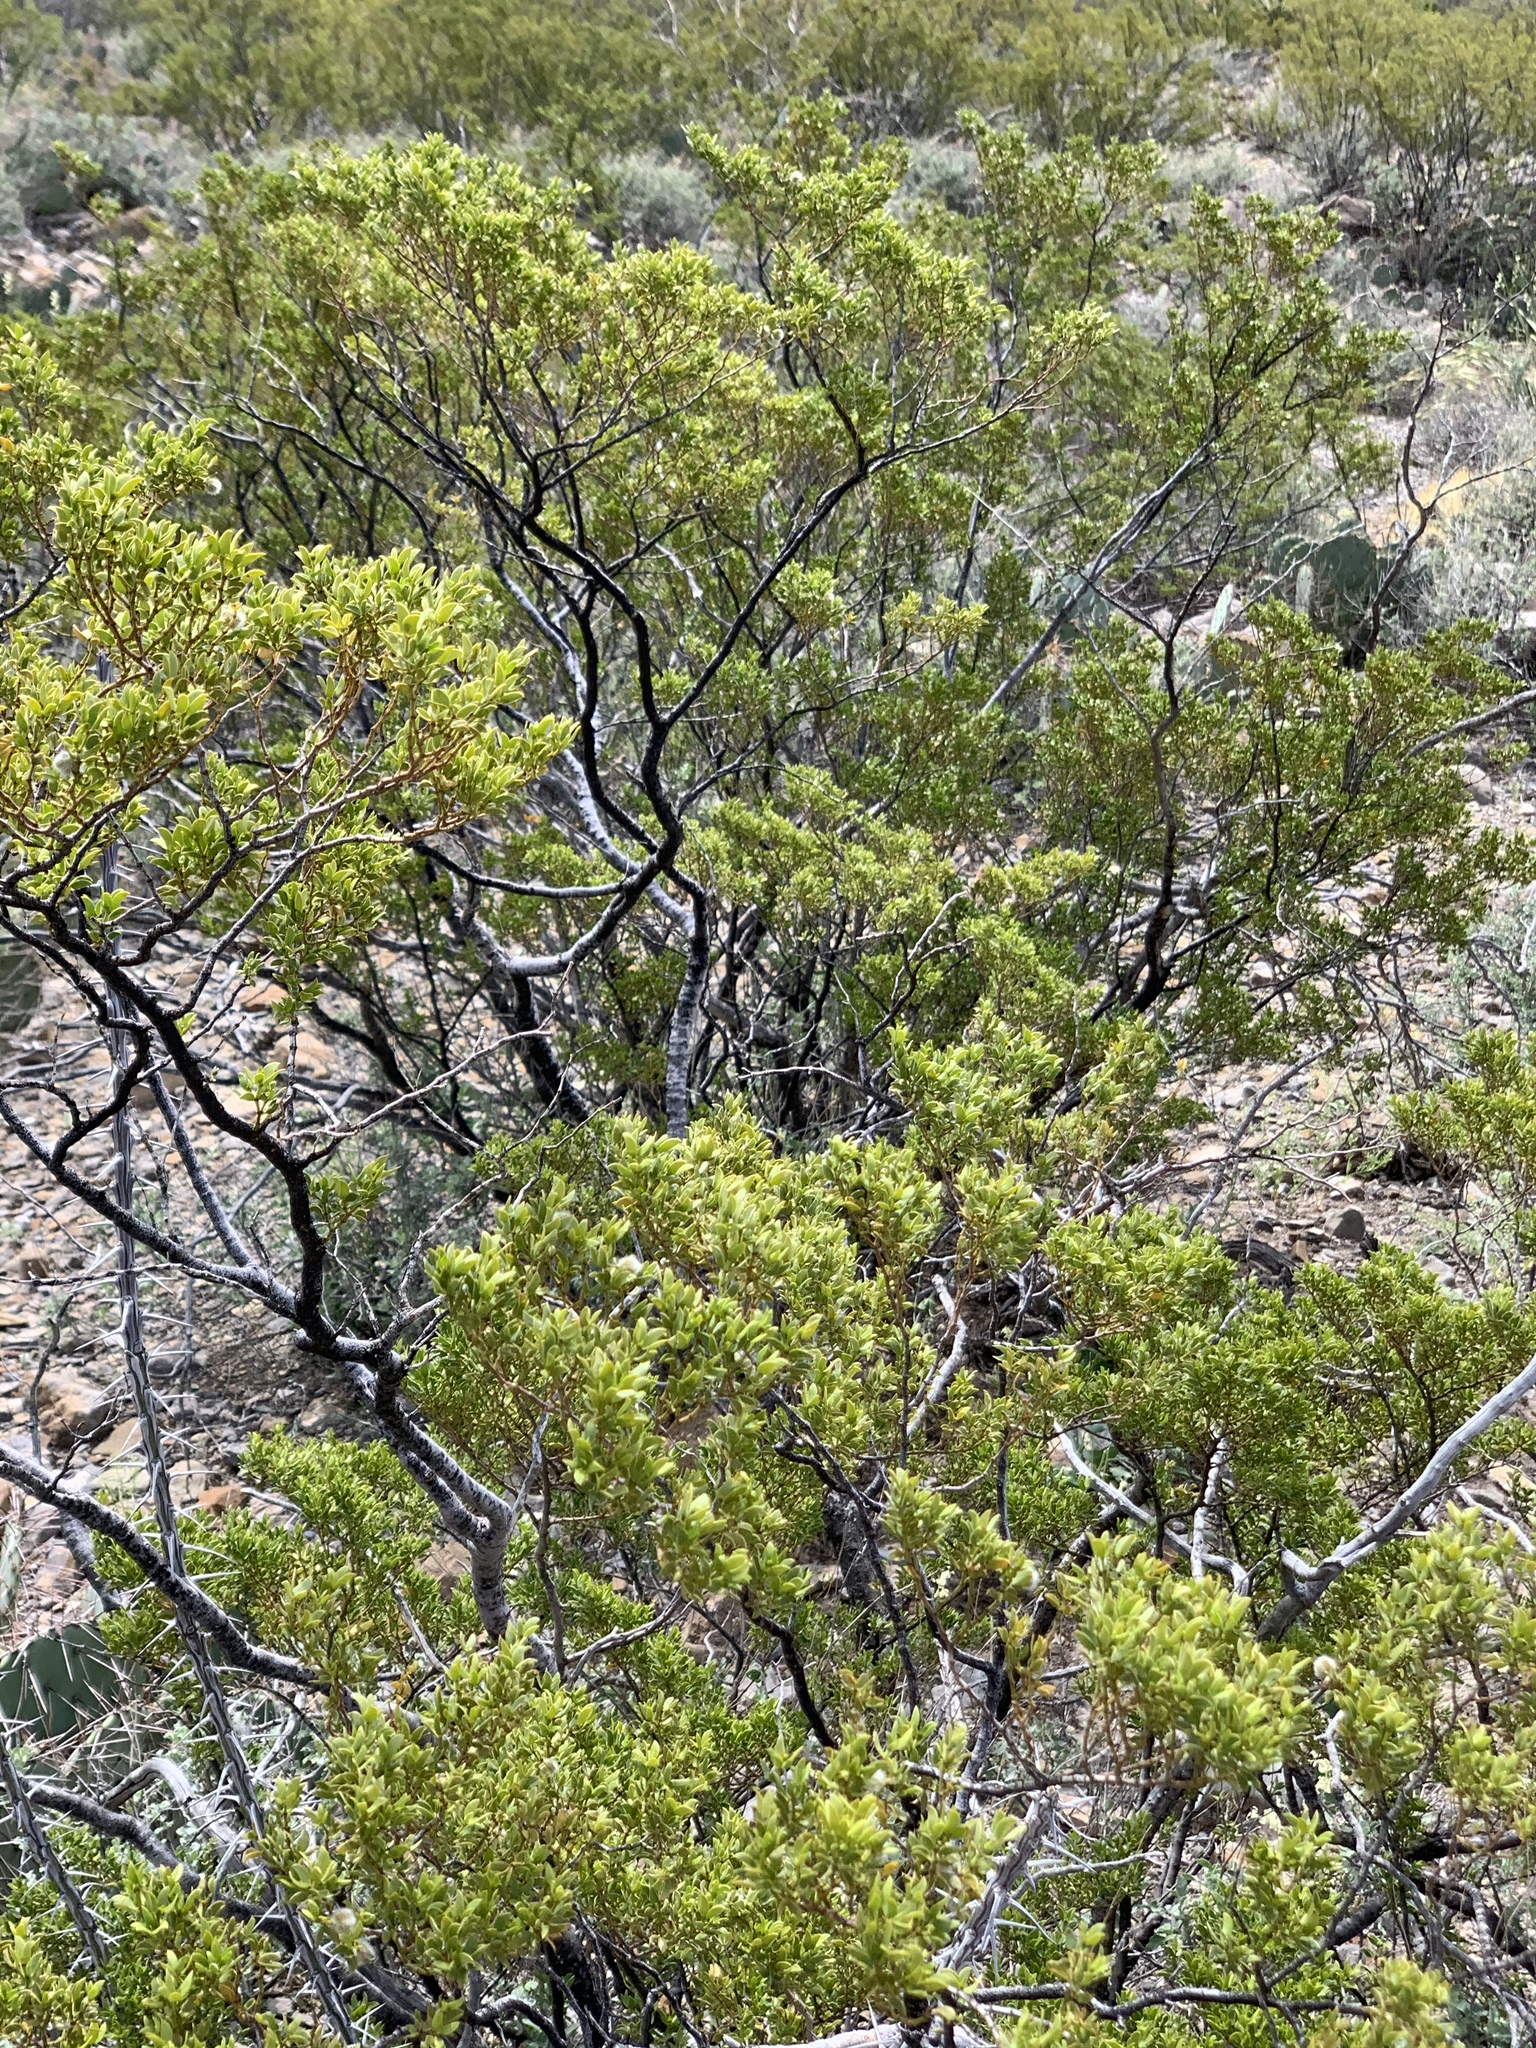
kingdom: Plantae
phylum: Tracheophyta
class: Magnoliopsida
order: Zygophyllales
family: Zygophyllaceae
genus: Larrea
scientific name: Larrea tridentata
